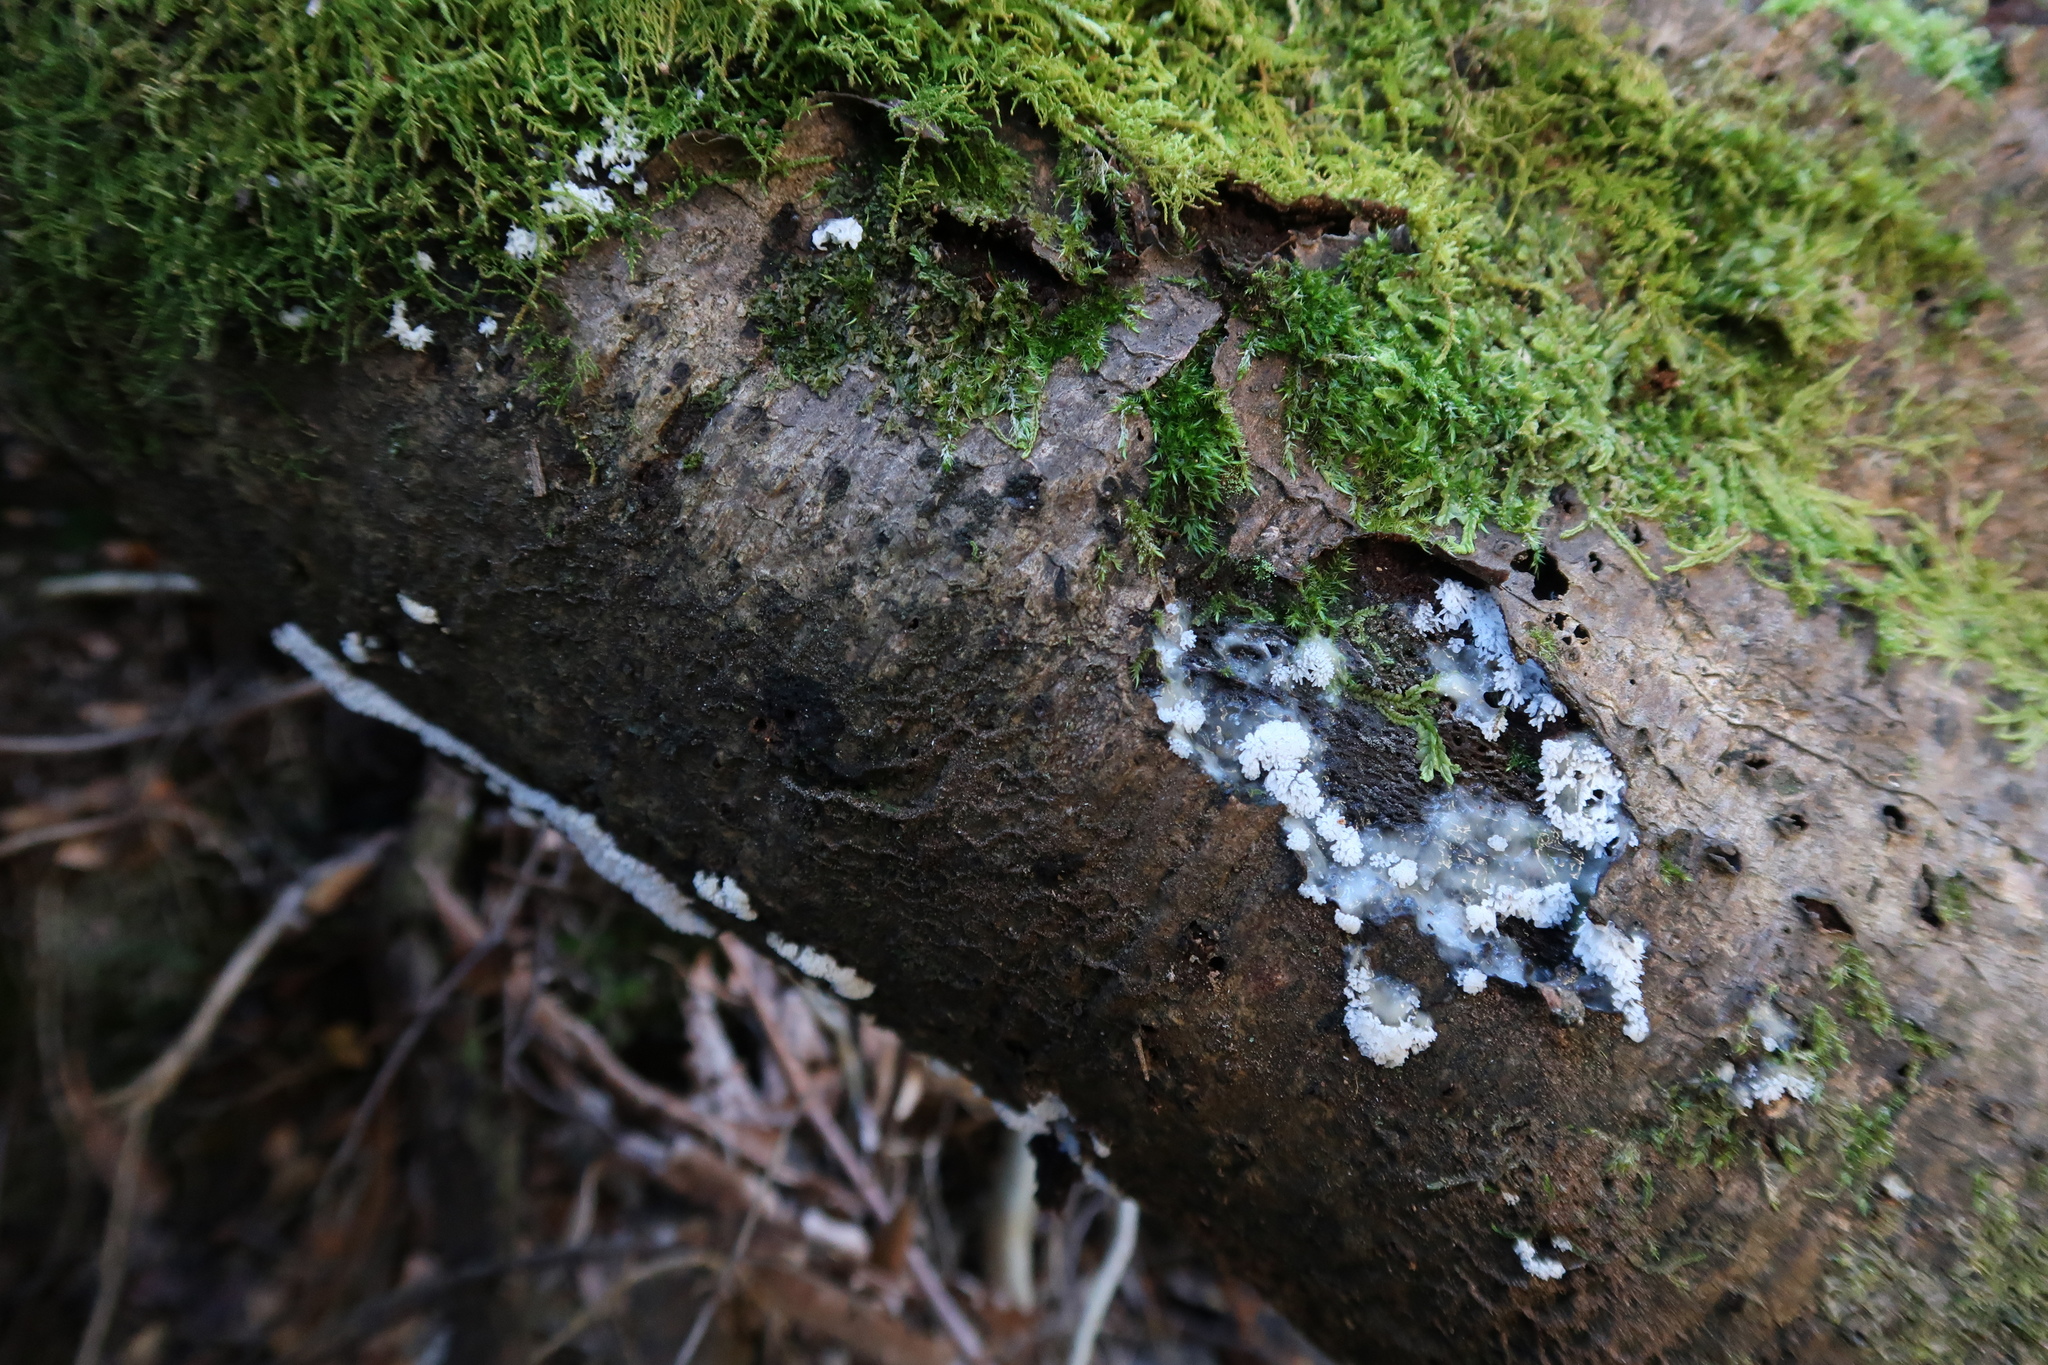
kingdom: Protozoa
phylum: Mycetozoa
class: Protosteliomycetes
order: Ceratiomyxales
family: Ceratiomyxaceae
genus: Ceratiomyxa
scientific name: Ceratiomyxa fruticulosa
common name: Honeycomb coral slime mold
